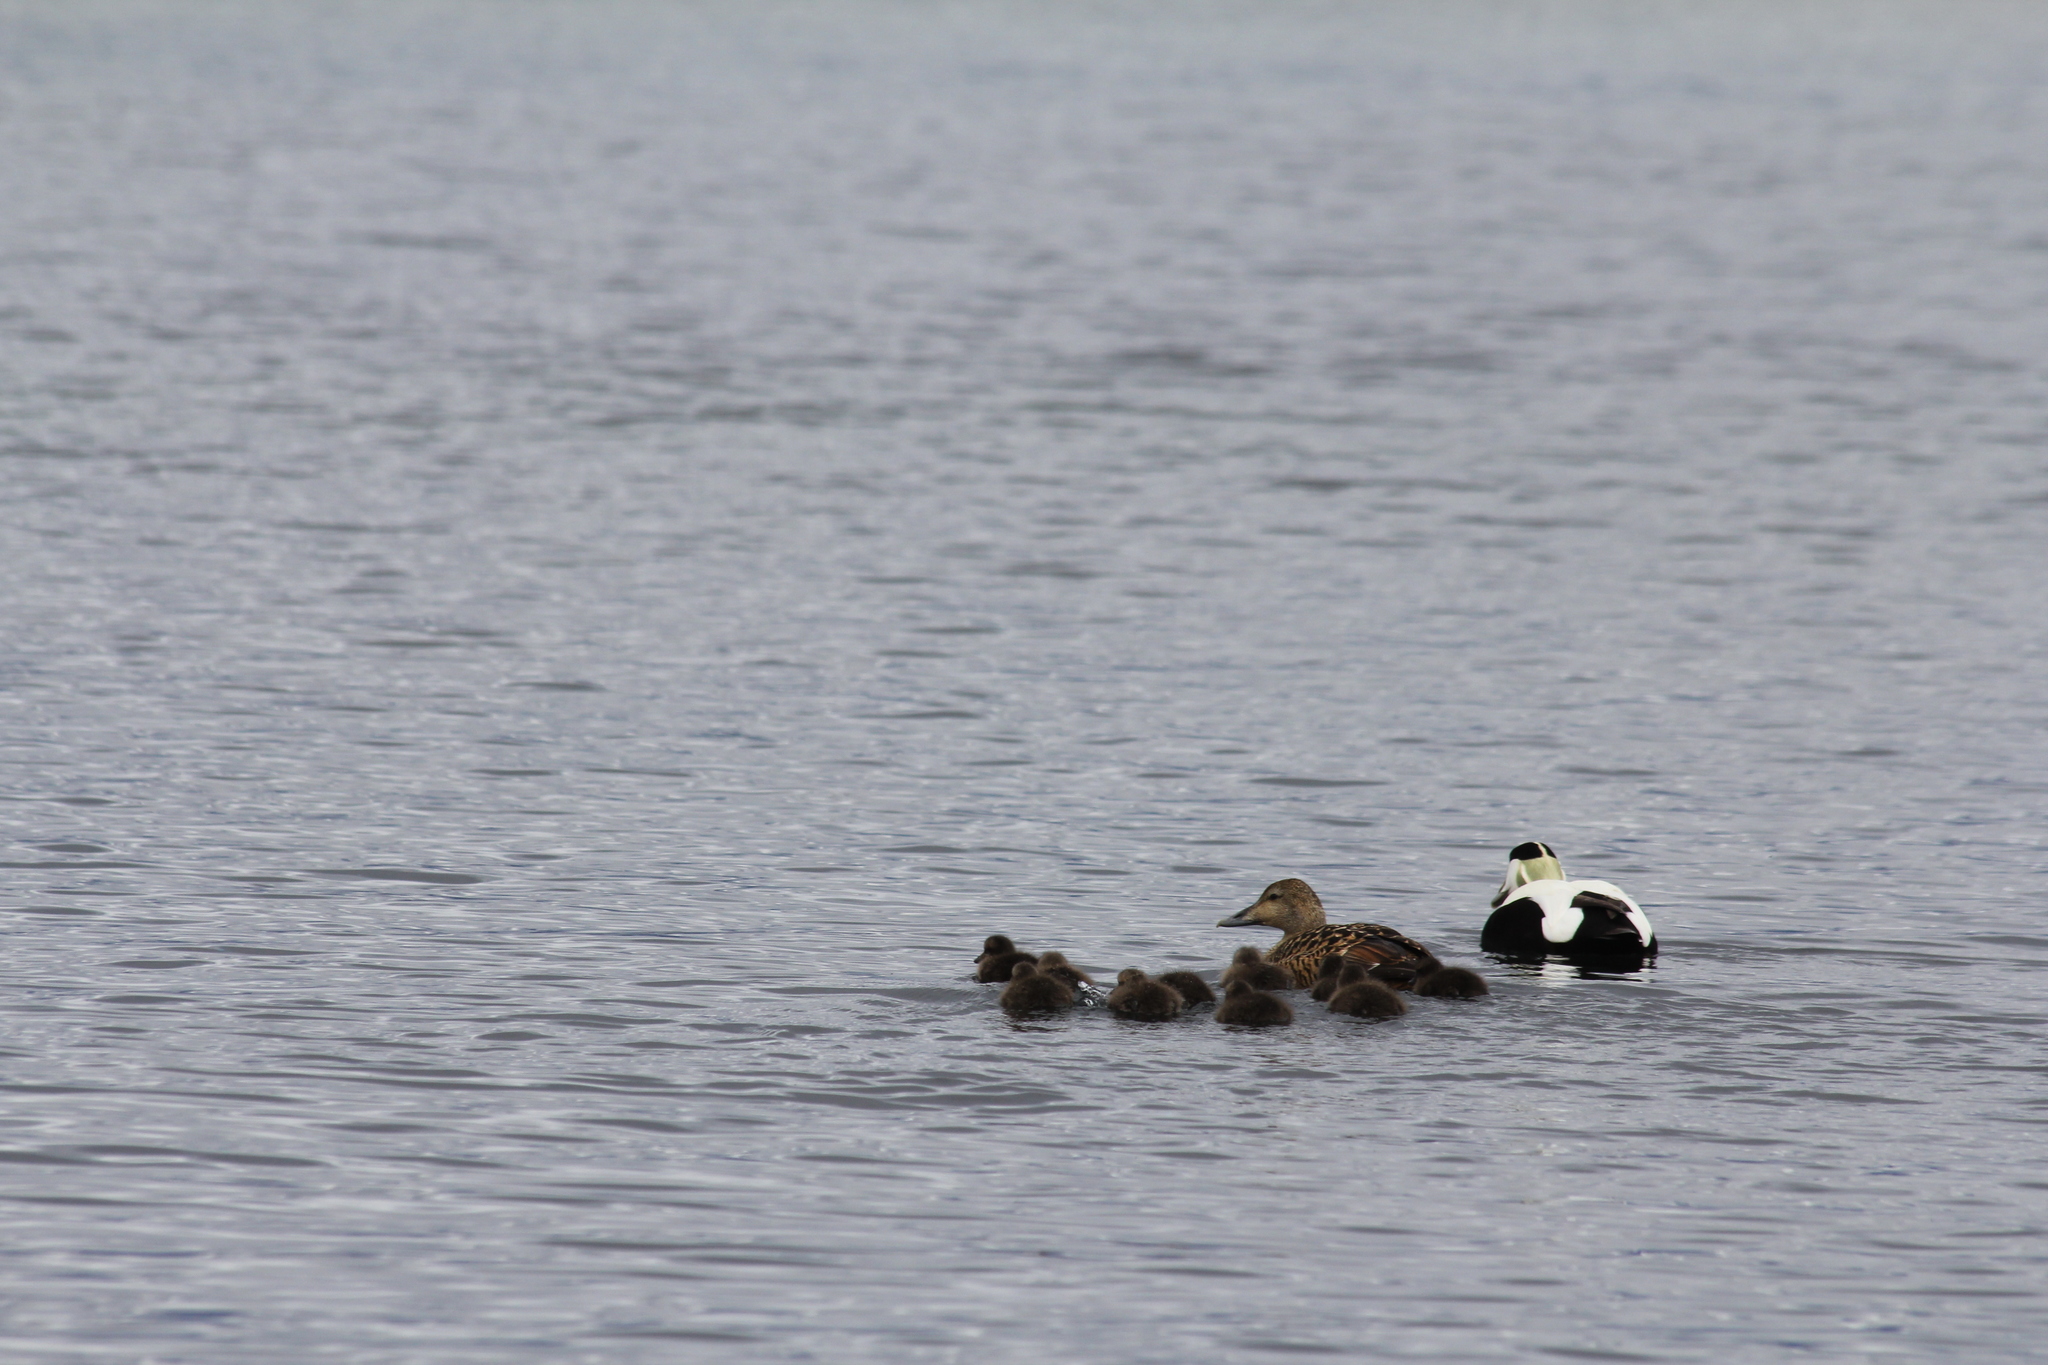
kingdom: Animalia
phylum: Chordata
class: Aves
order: Anseriformes
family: Anatidae
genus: Somateria
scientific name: Somateria mollissima
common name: Common eider
